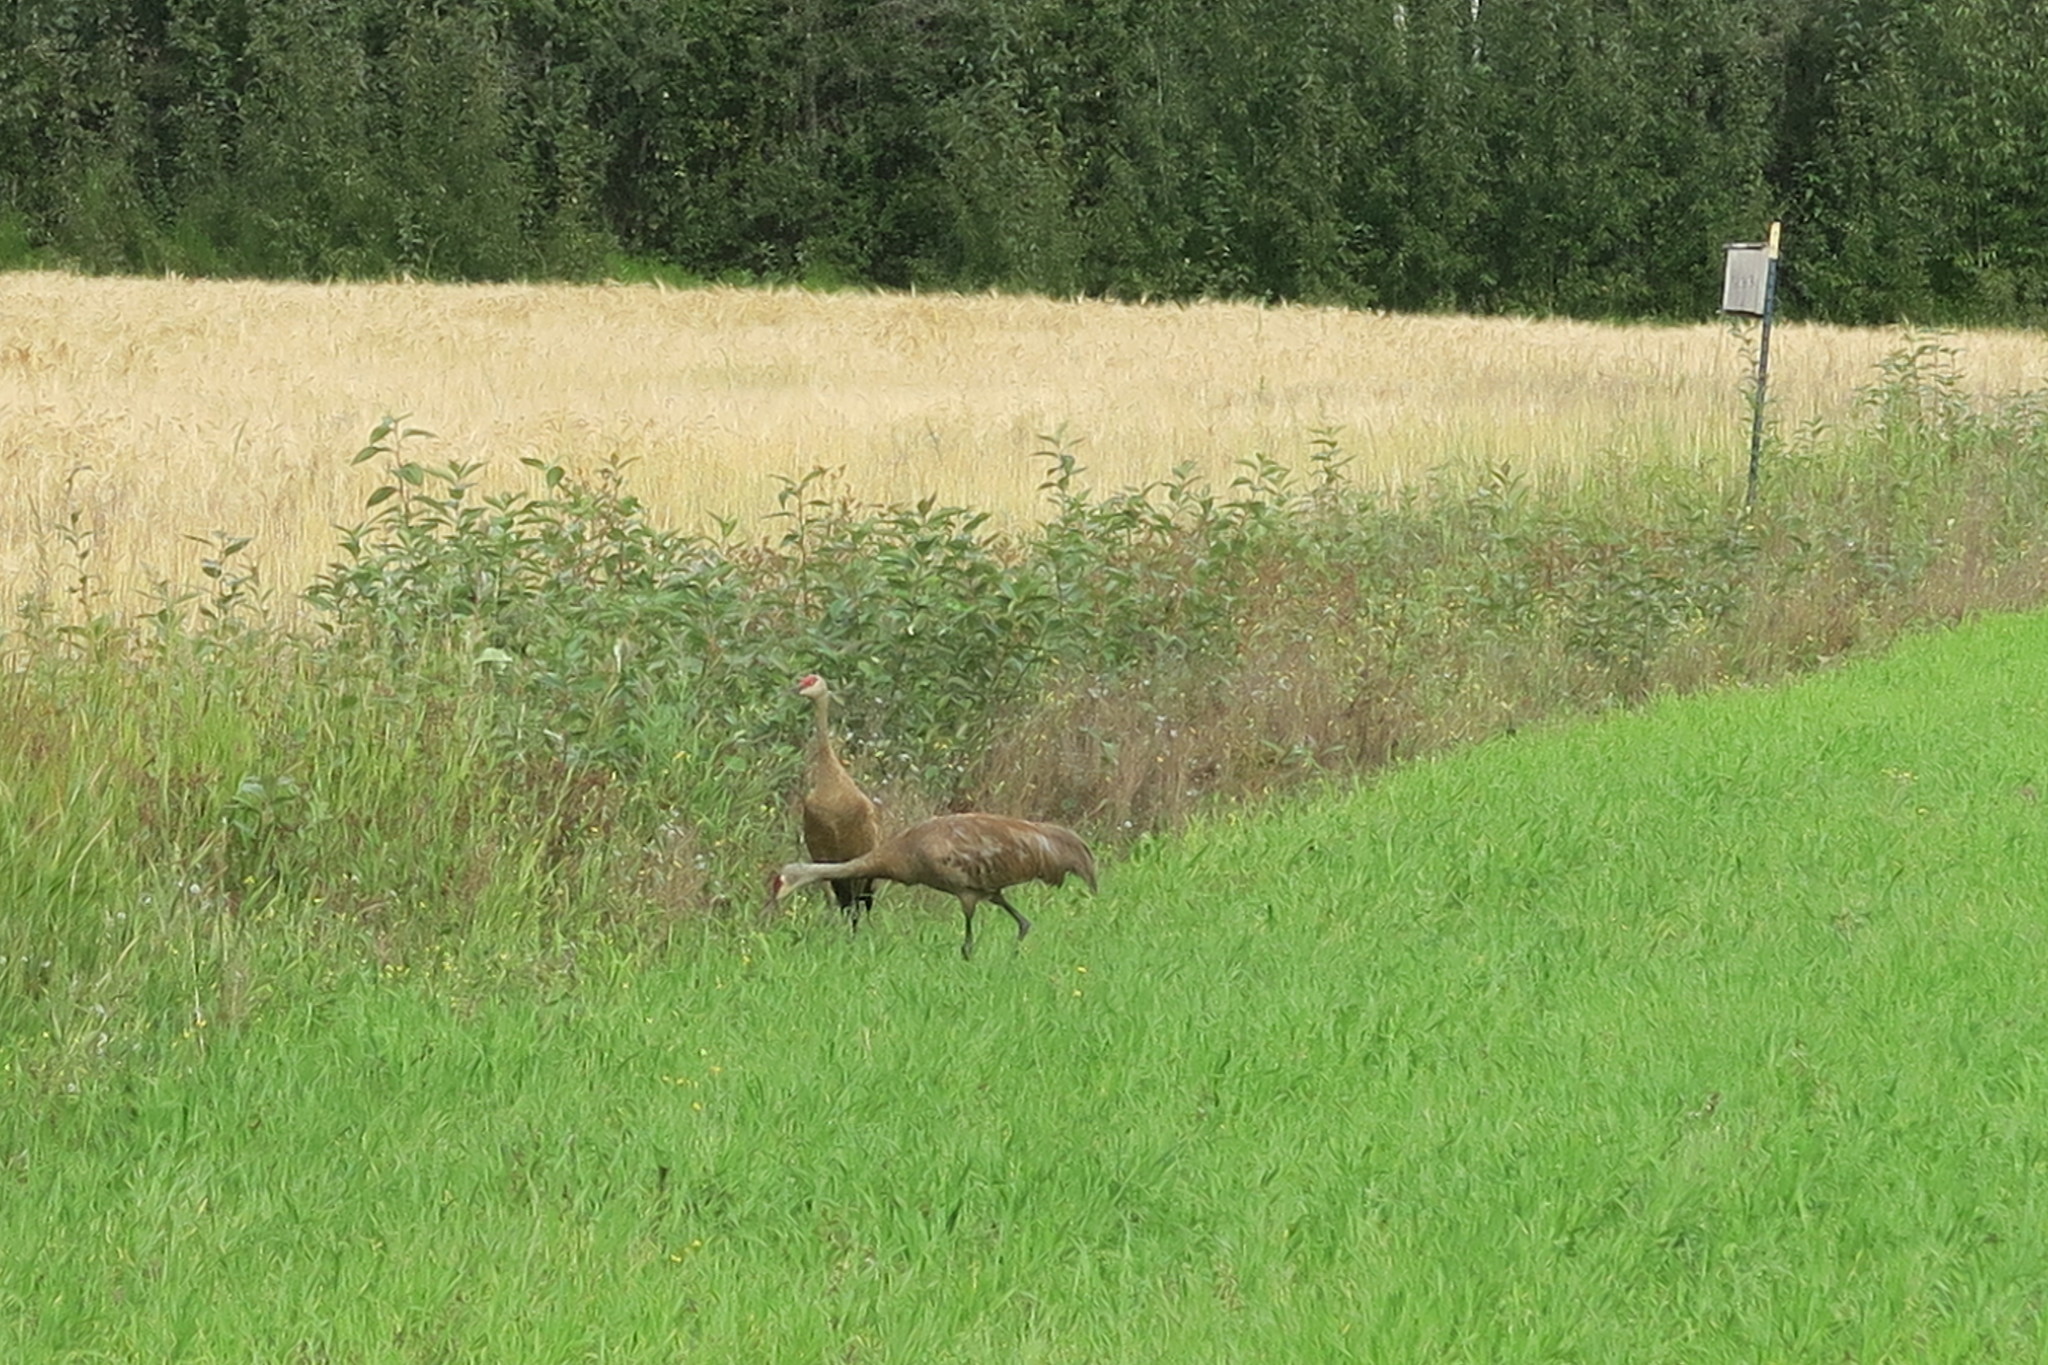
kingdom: Animalia
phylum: Chordata
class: Aves
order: Gruiformes
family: Gruidae
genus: Grus
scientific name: Grus canadensis
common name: Sandhill crane
